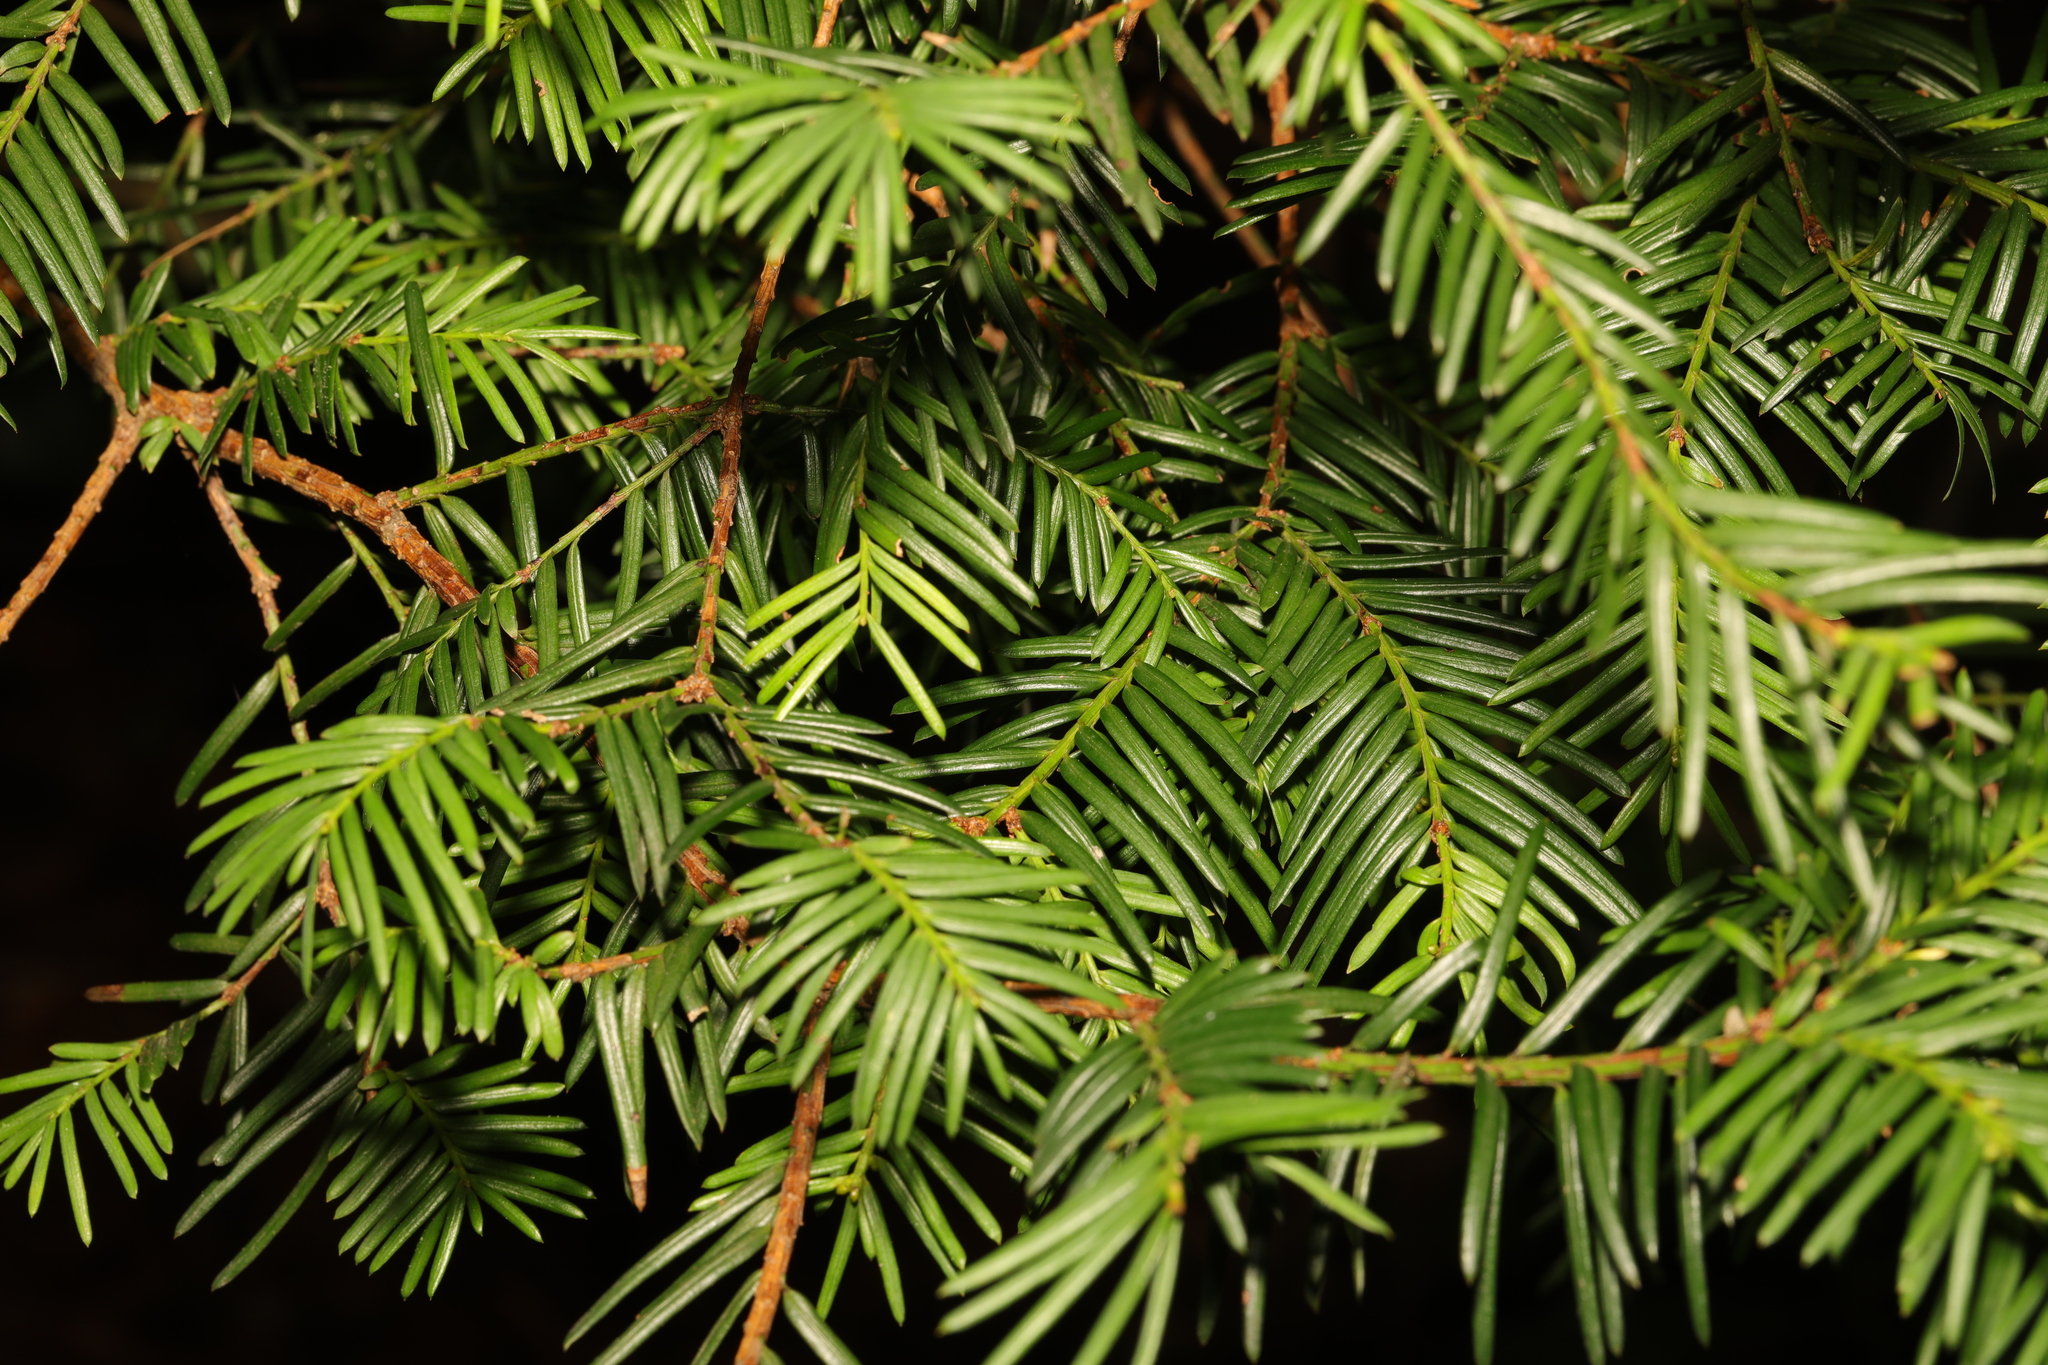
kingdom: Plantae
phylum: Tracheophyta
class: Pinopsida
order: Pinales
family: Taxaceae
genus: Taxus
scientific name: Taxus baccata
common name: Yew
